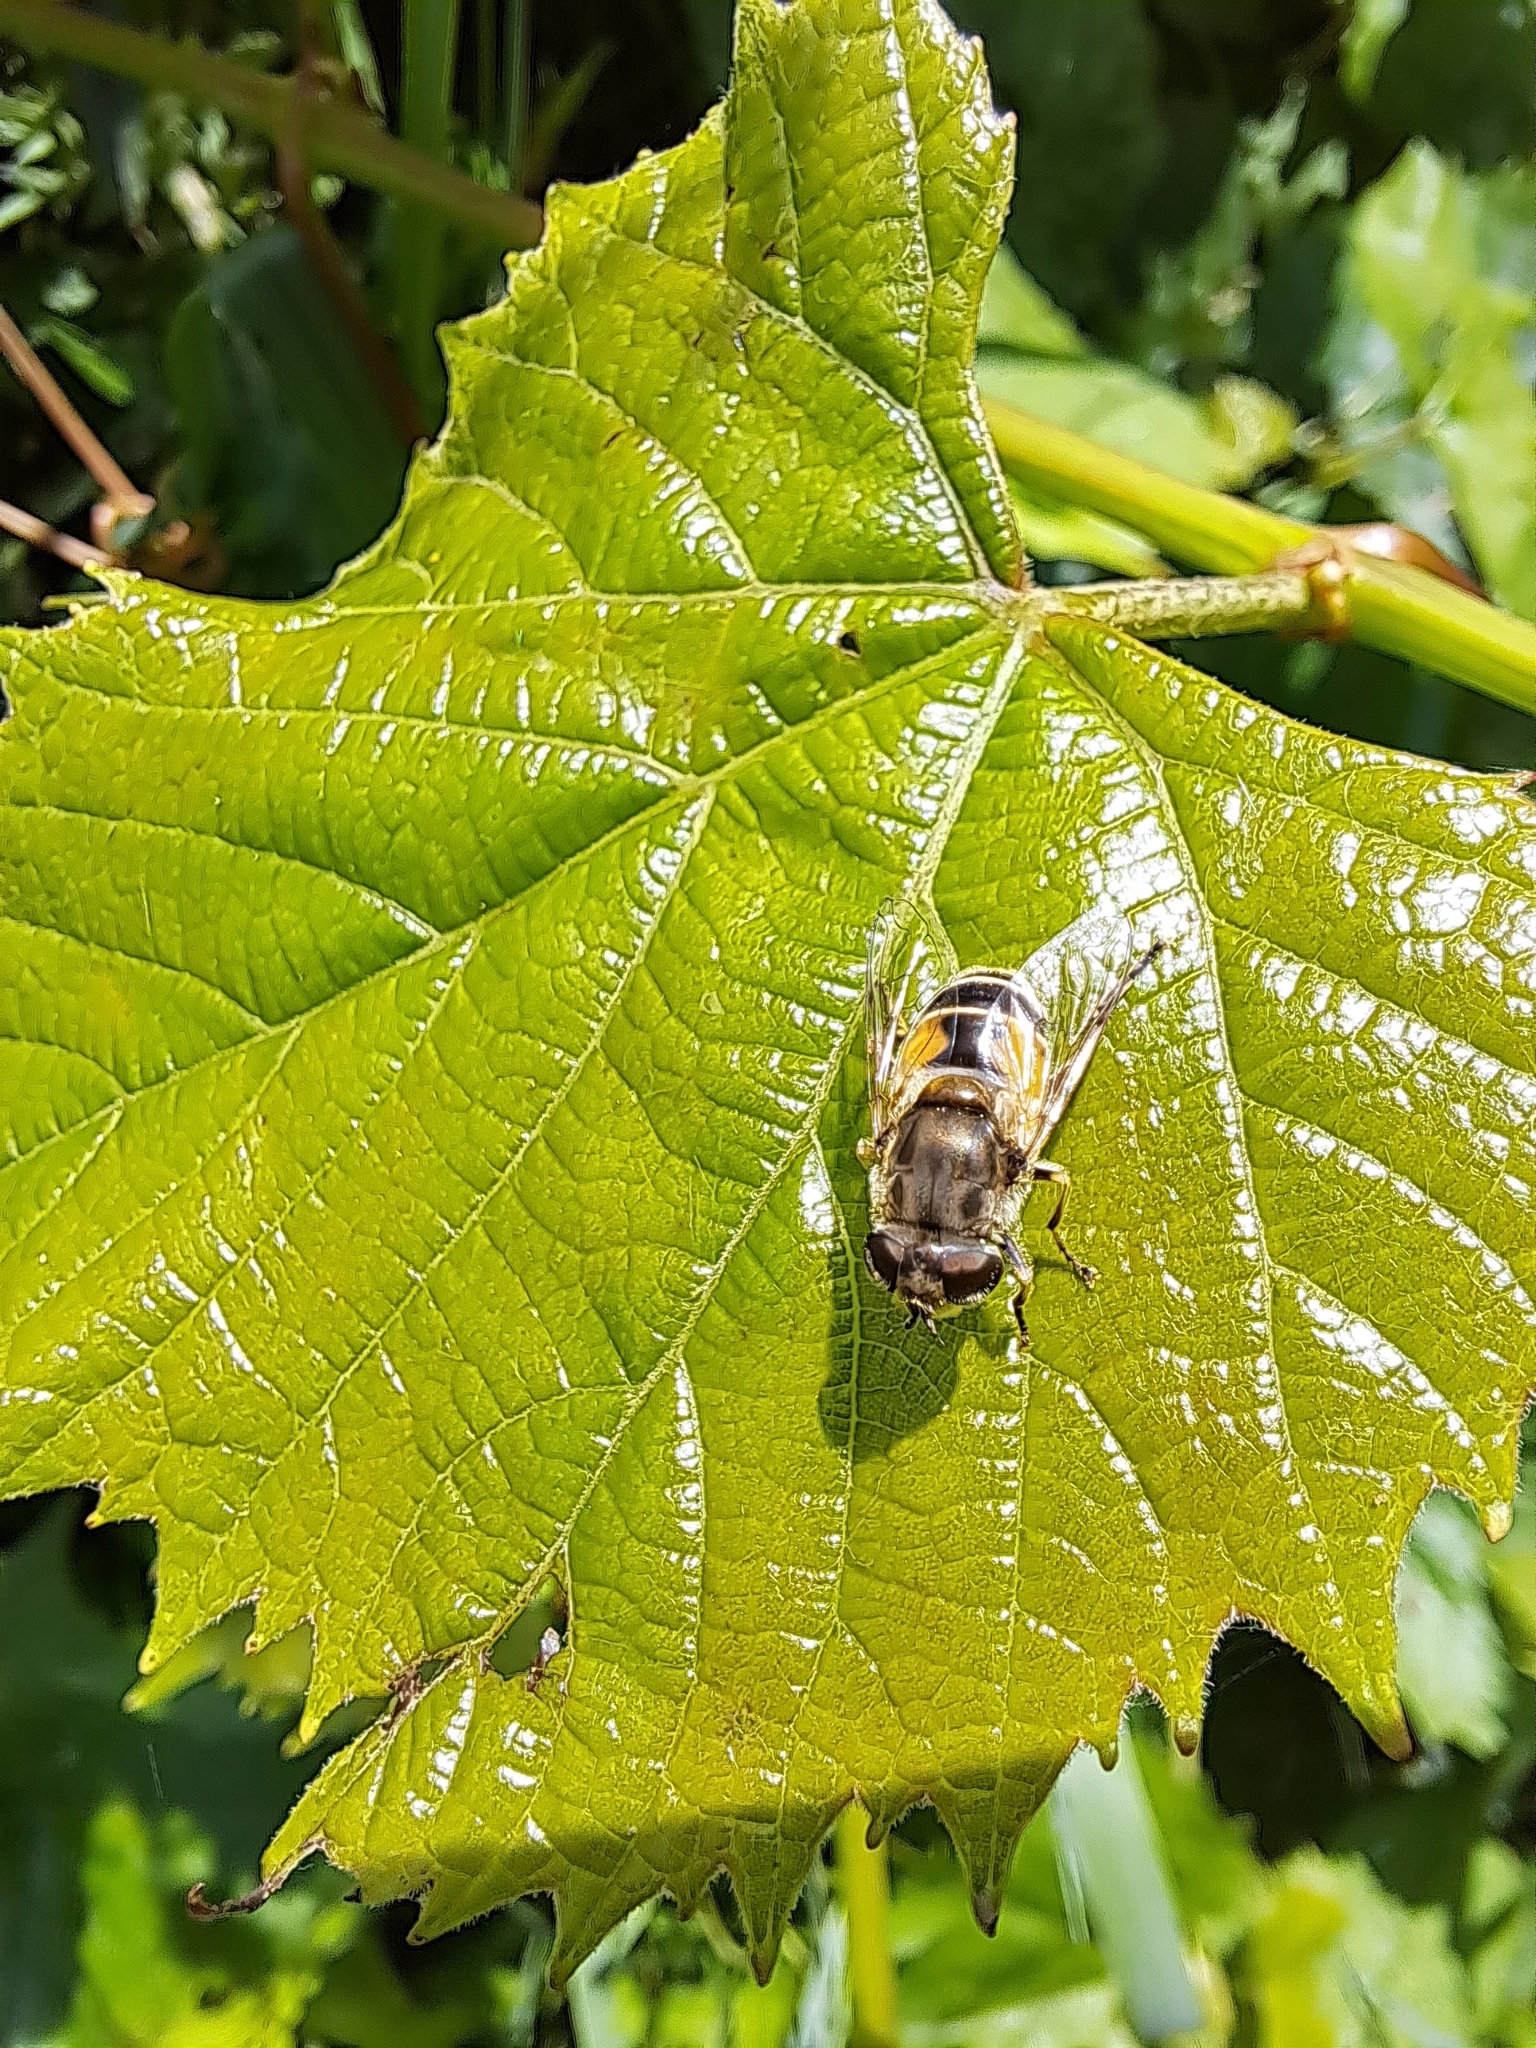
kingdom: Animalia
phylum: Arthropoda
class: Insecta
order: Diptera
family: Syrphidae
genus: Eristalis
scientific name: Eristalis arbustorum
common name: Hover fly
